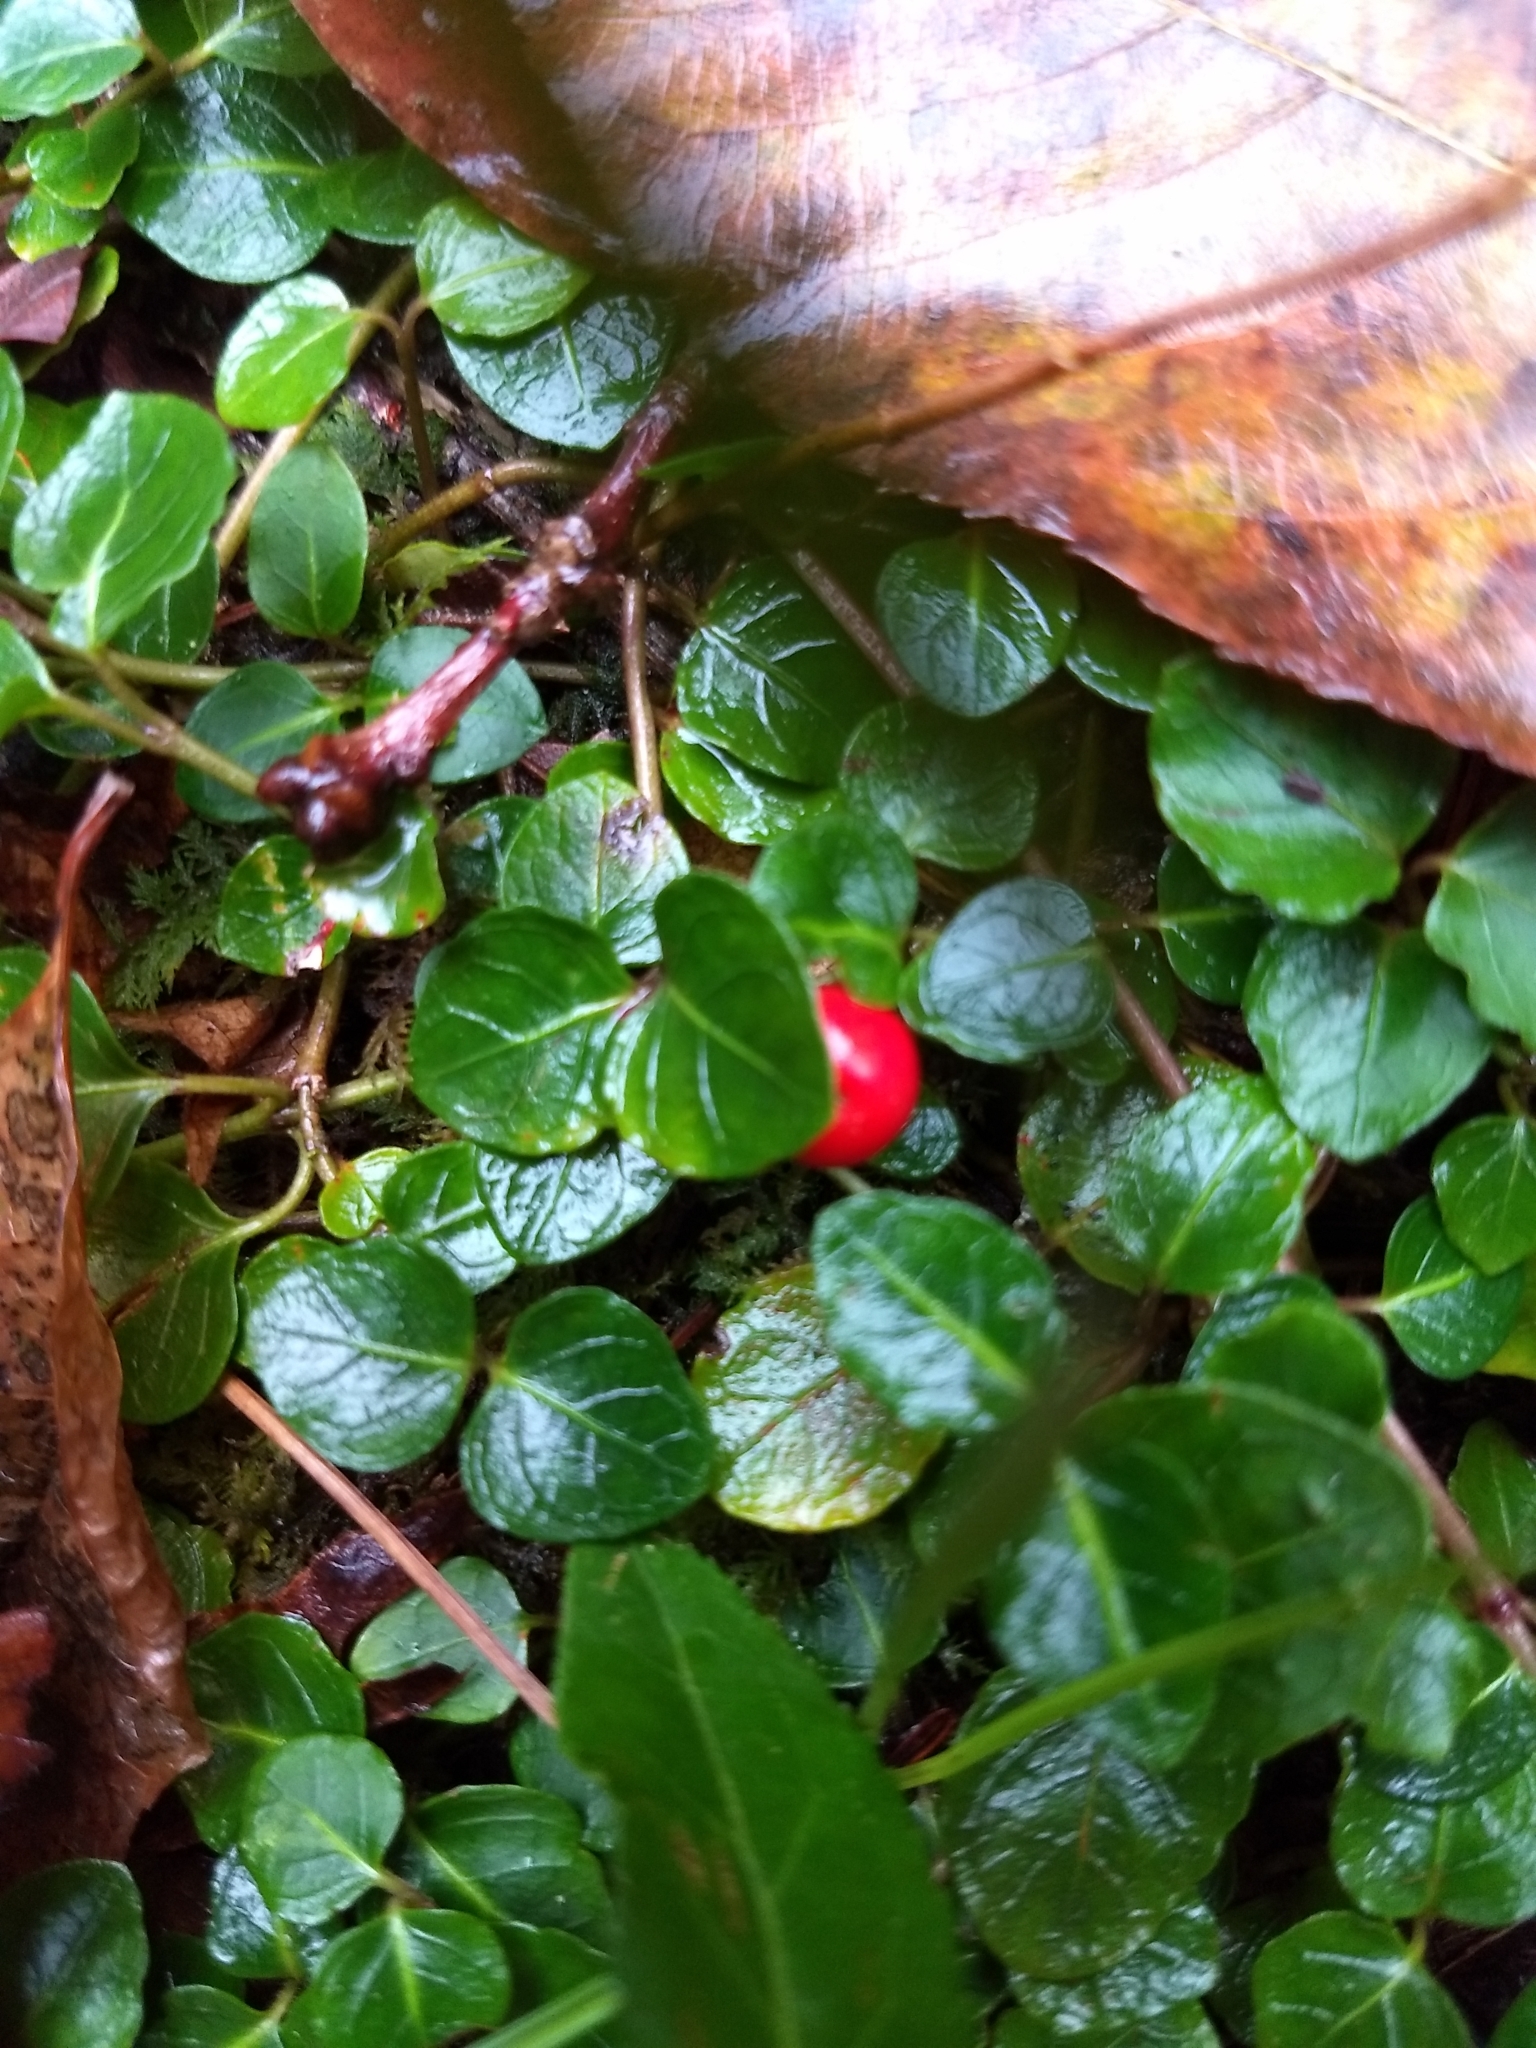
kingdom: Plantae
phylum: Tracheophyta
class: Magnoliopsida
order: Gentianales
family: Rubiaceae
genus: Mitchella
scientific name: Mitchella repens
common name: Partridge-berry
